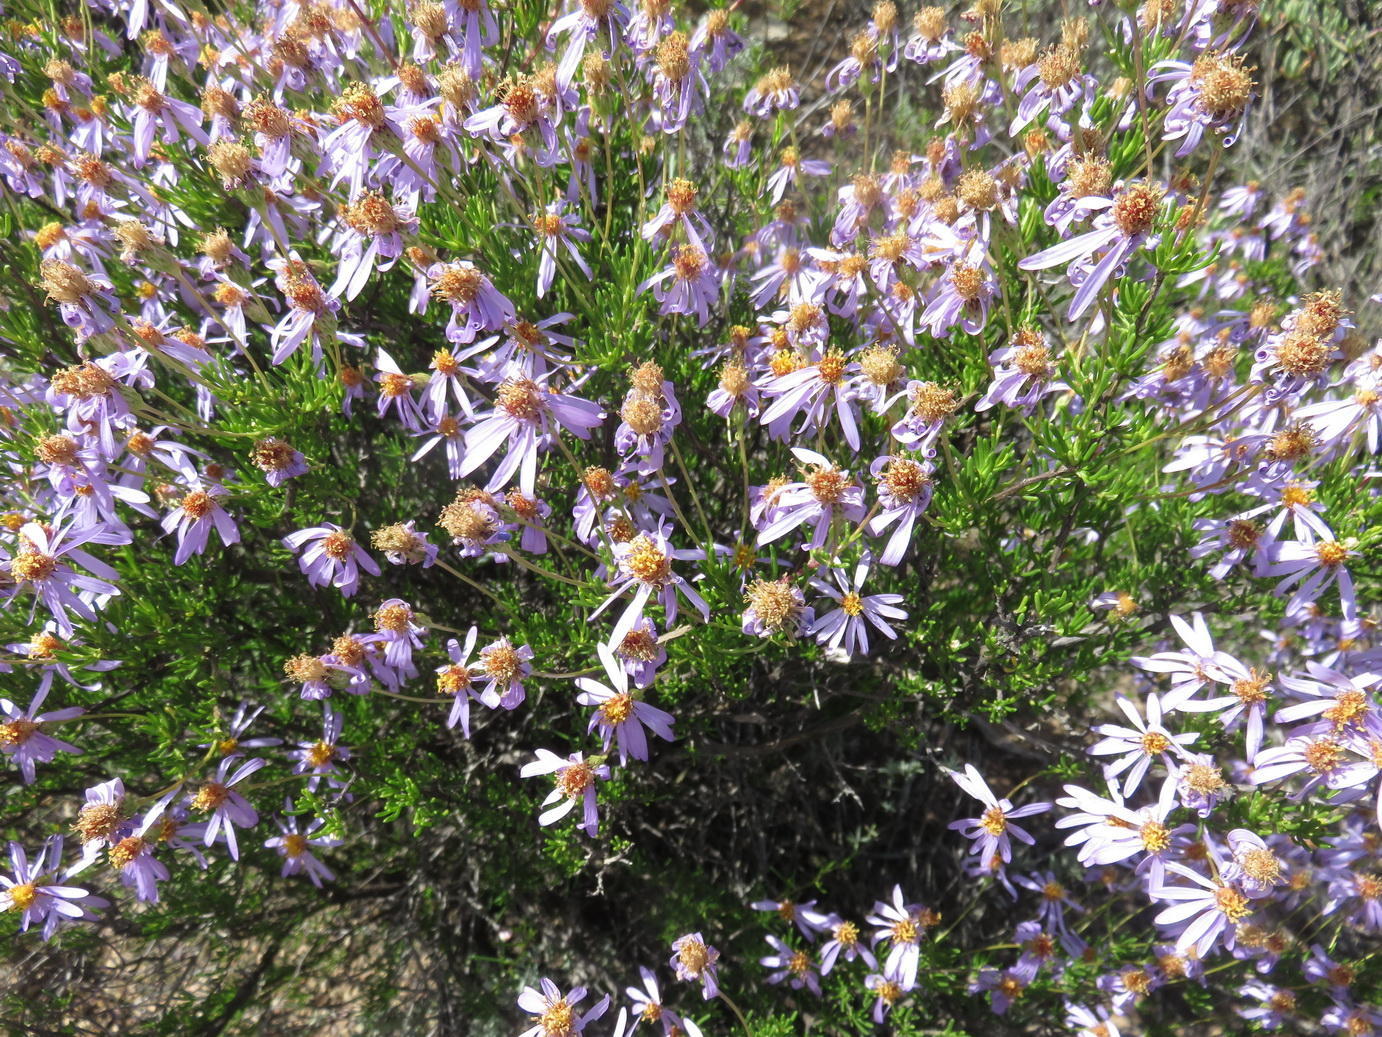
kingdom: Plantae
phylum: Tracheophyta
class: Magnoliopsida
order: Asterales
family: Asteraceae
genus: Felicia
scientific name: Felicia filifolia
